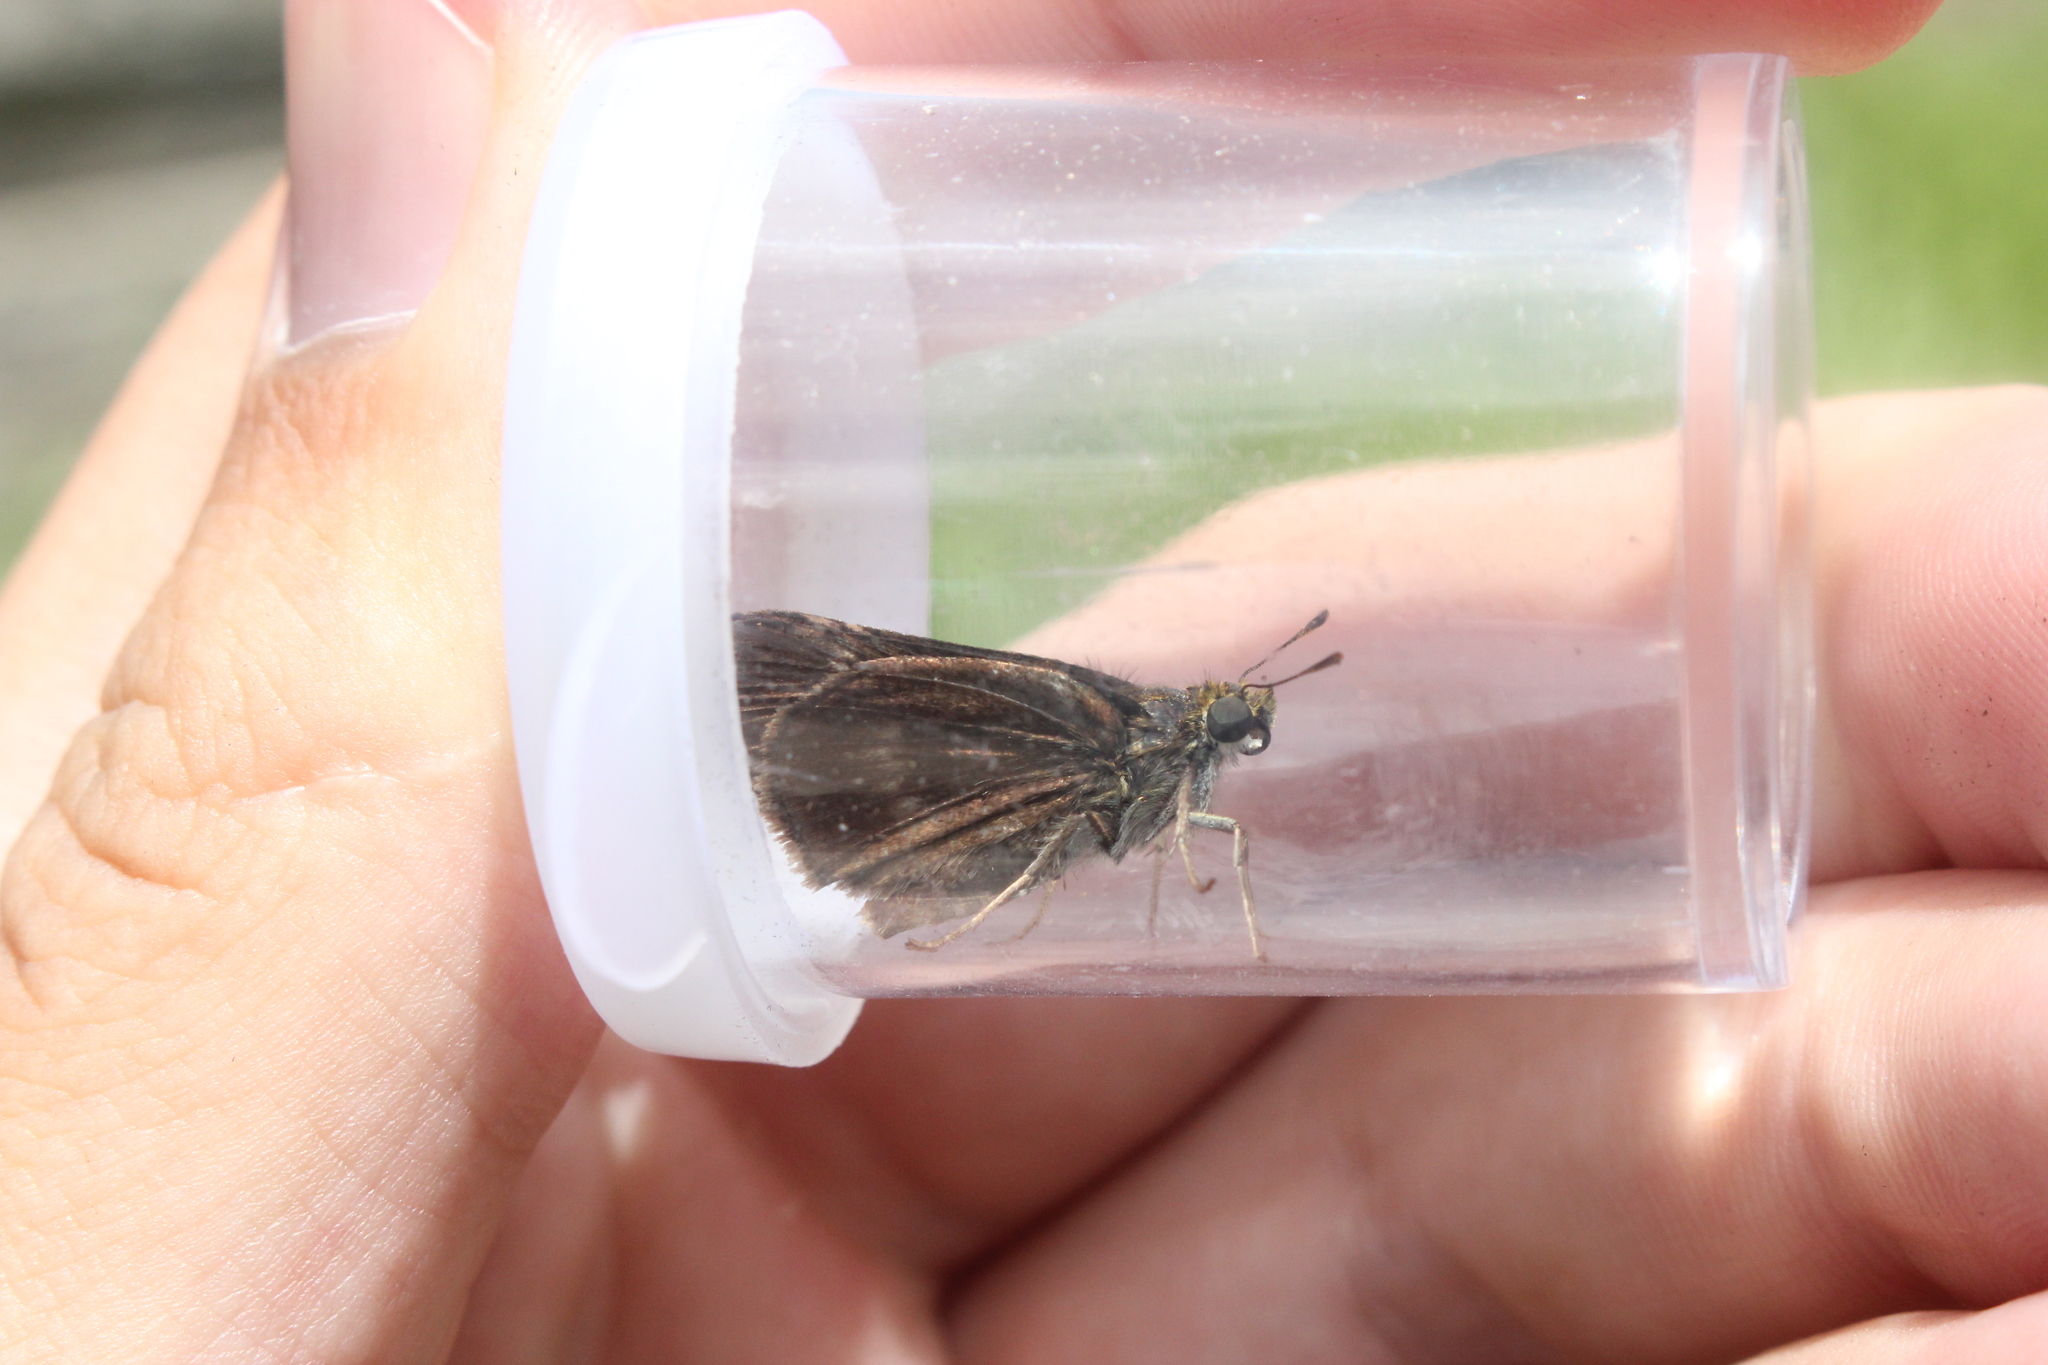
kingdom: Animalia
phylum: Arthropoda
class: Insecta
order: Lepidoptera
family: Hesperiidae
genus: Euphyes
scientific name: Euphyes vestris
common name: Dun skipper
